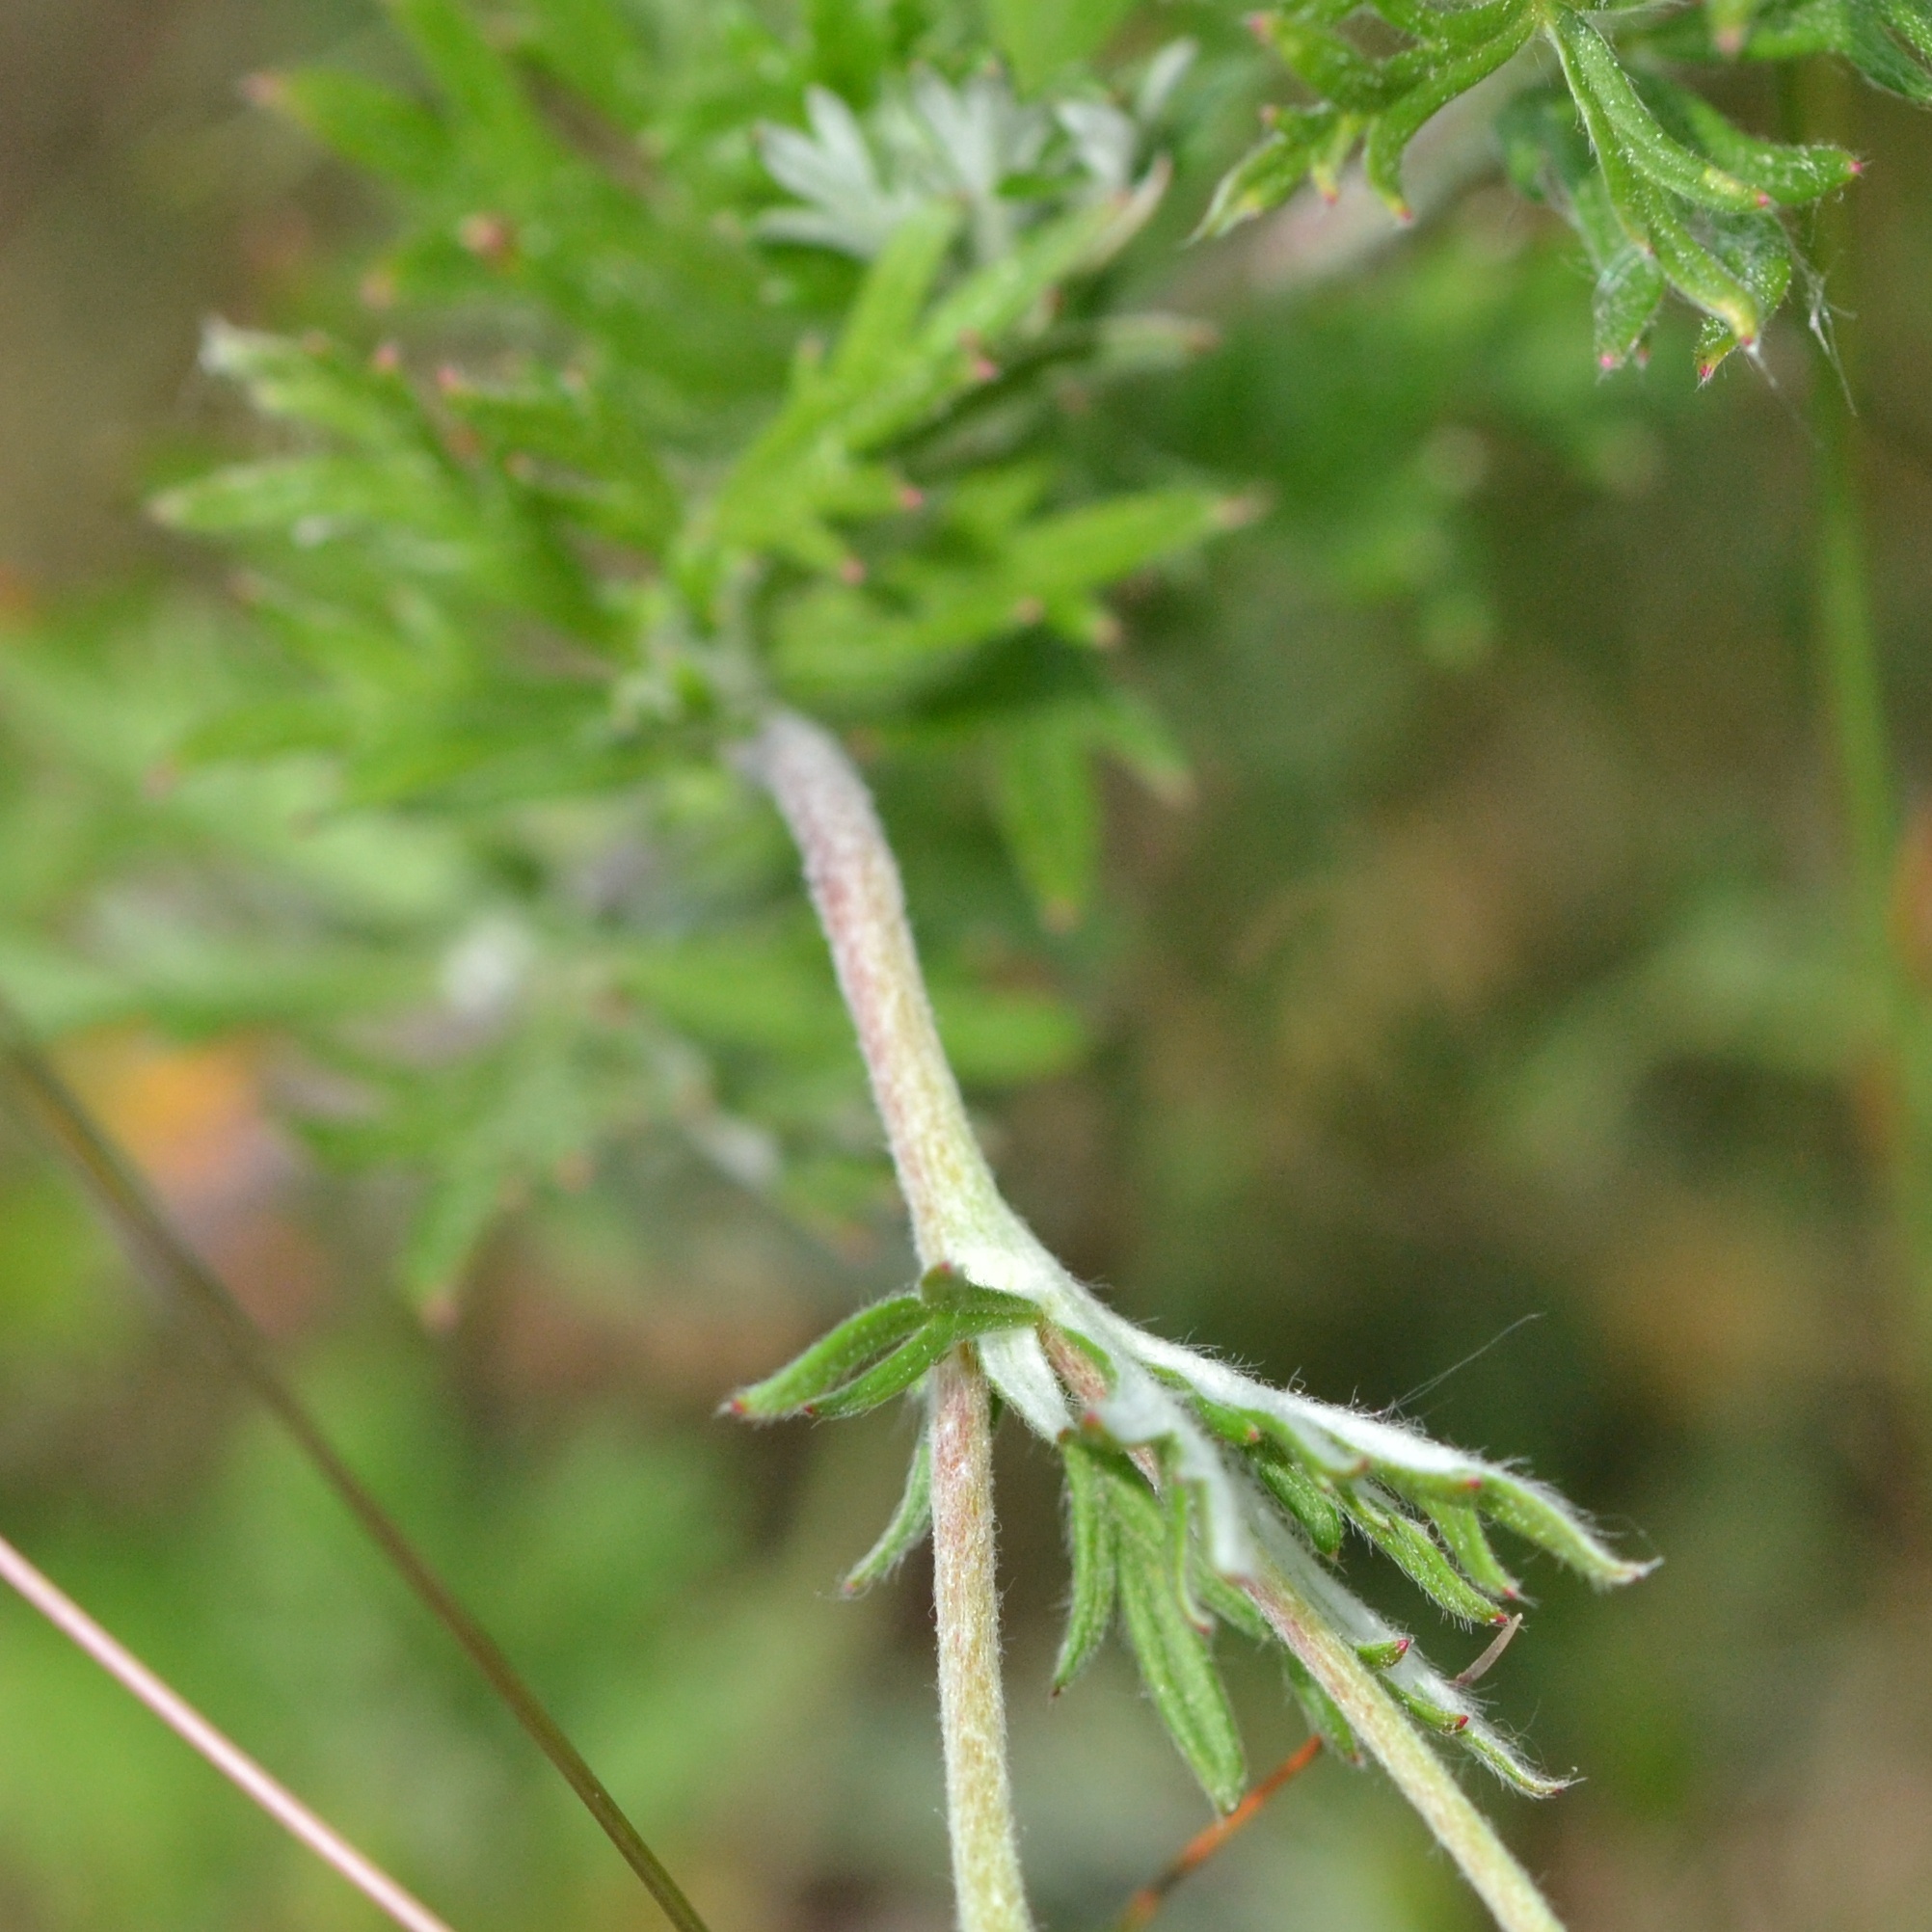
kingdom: Plantae
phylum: Tracheophyta
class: Magnoliopsida
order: Rosales
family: Rosaceae
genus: Potentilla
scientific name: Potentilla argentea
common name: Hoary cinquefoil
